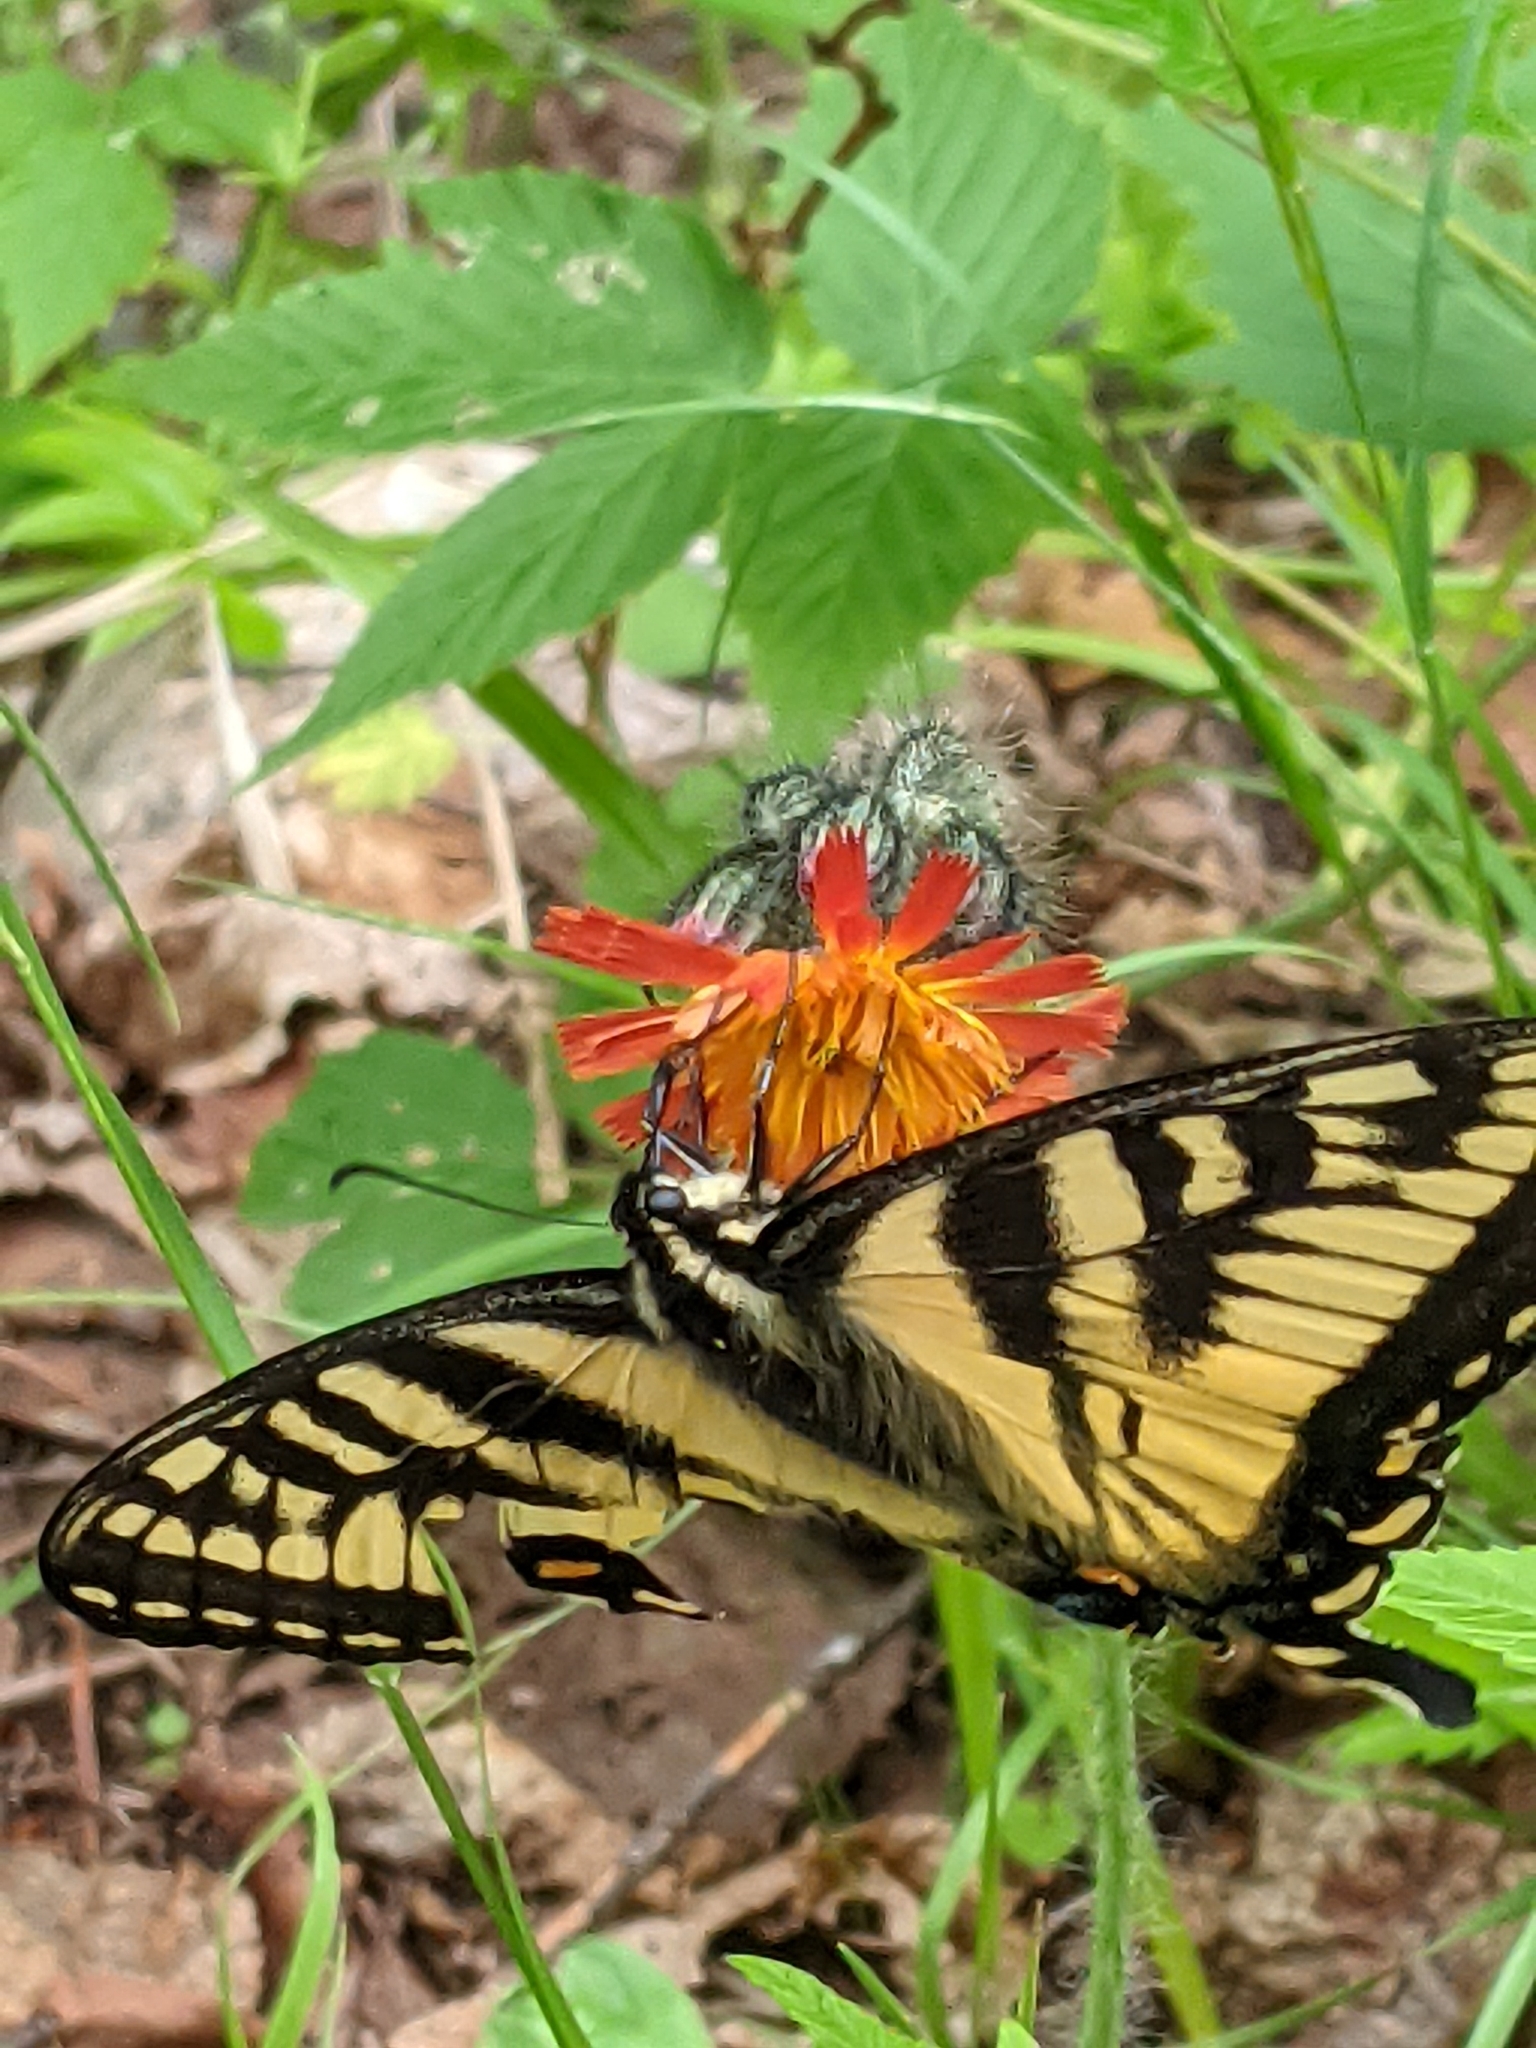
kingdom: Animalia
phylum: Arthropoda
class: Insecta
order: Lepidoptera
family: Papilionidae
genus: Papilio
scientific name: Papilio canadensis
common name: Canadian tiger swallowtail
